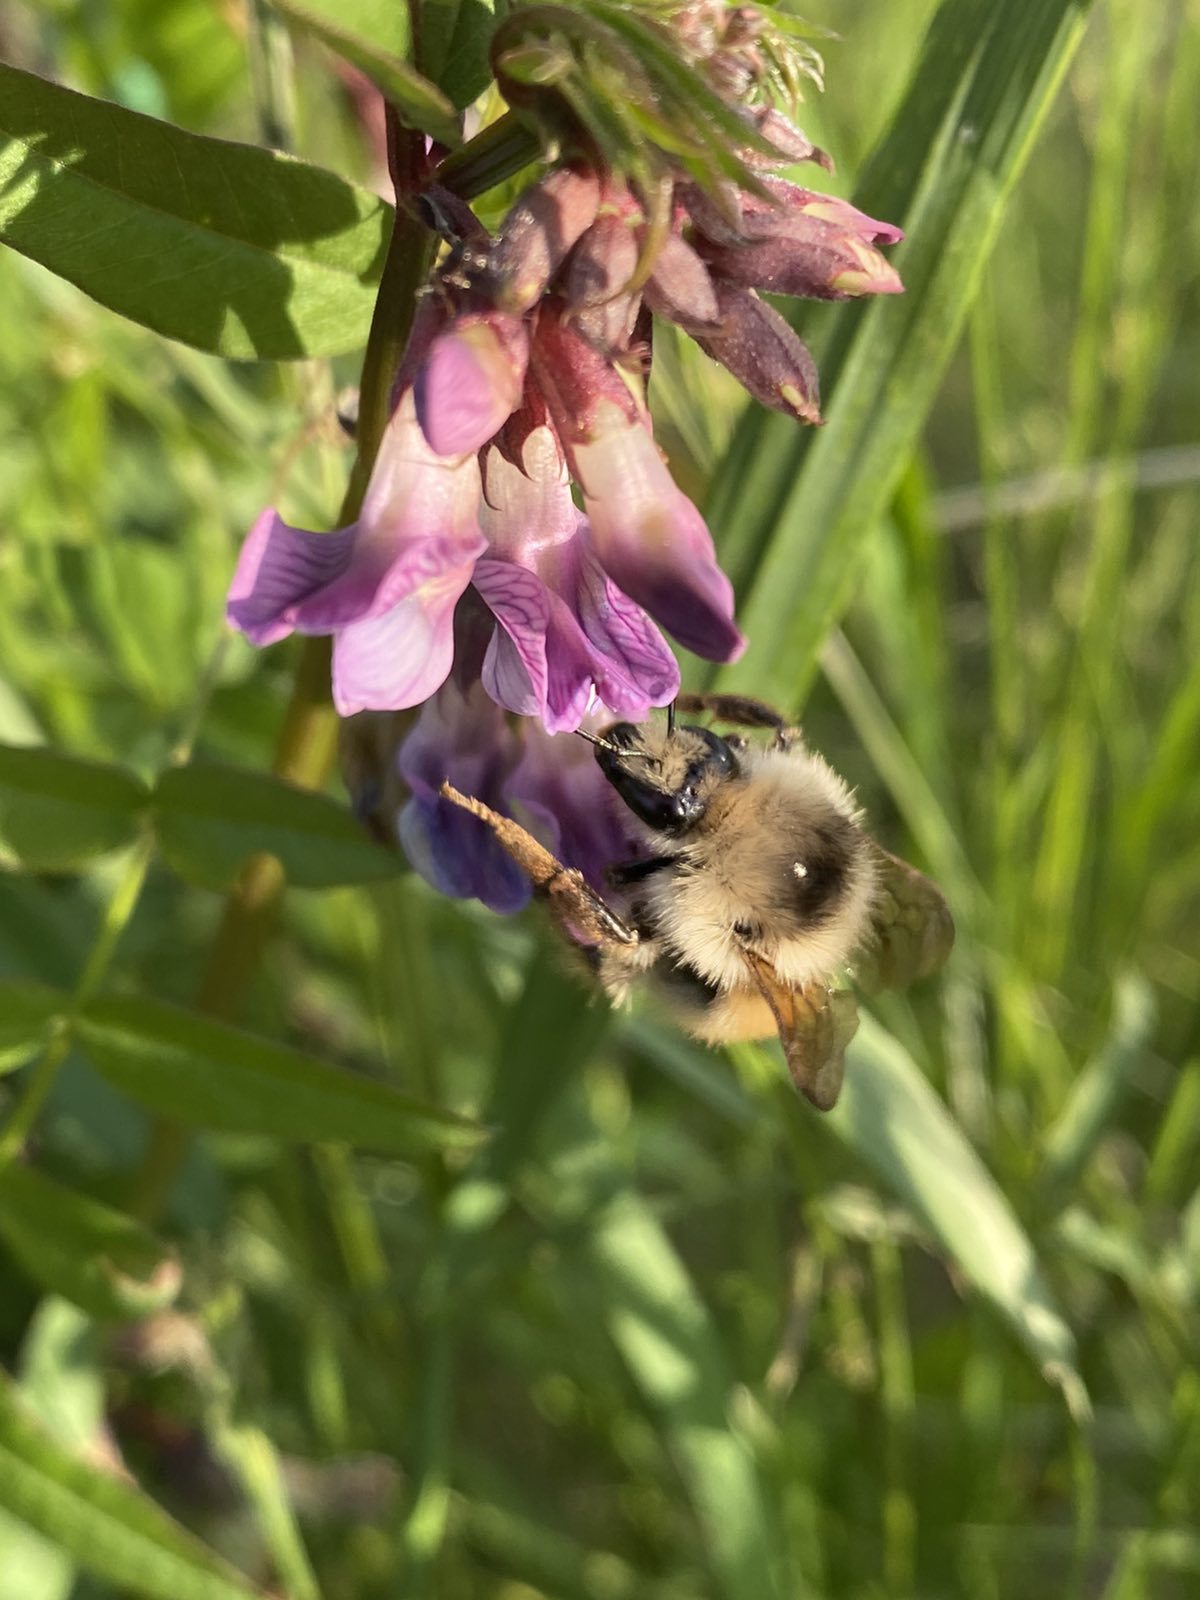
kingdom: Animalia
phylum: Arthropoda
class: Insecta
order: Hymenoptera
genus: Thoracobombus
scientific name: Thoracobombus
